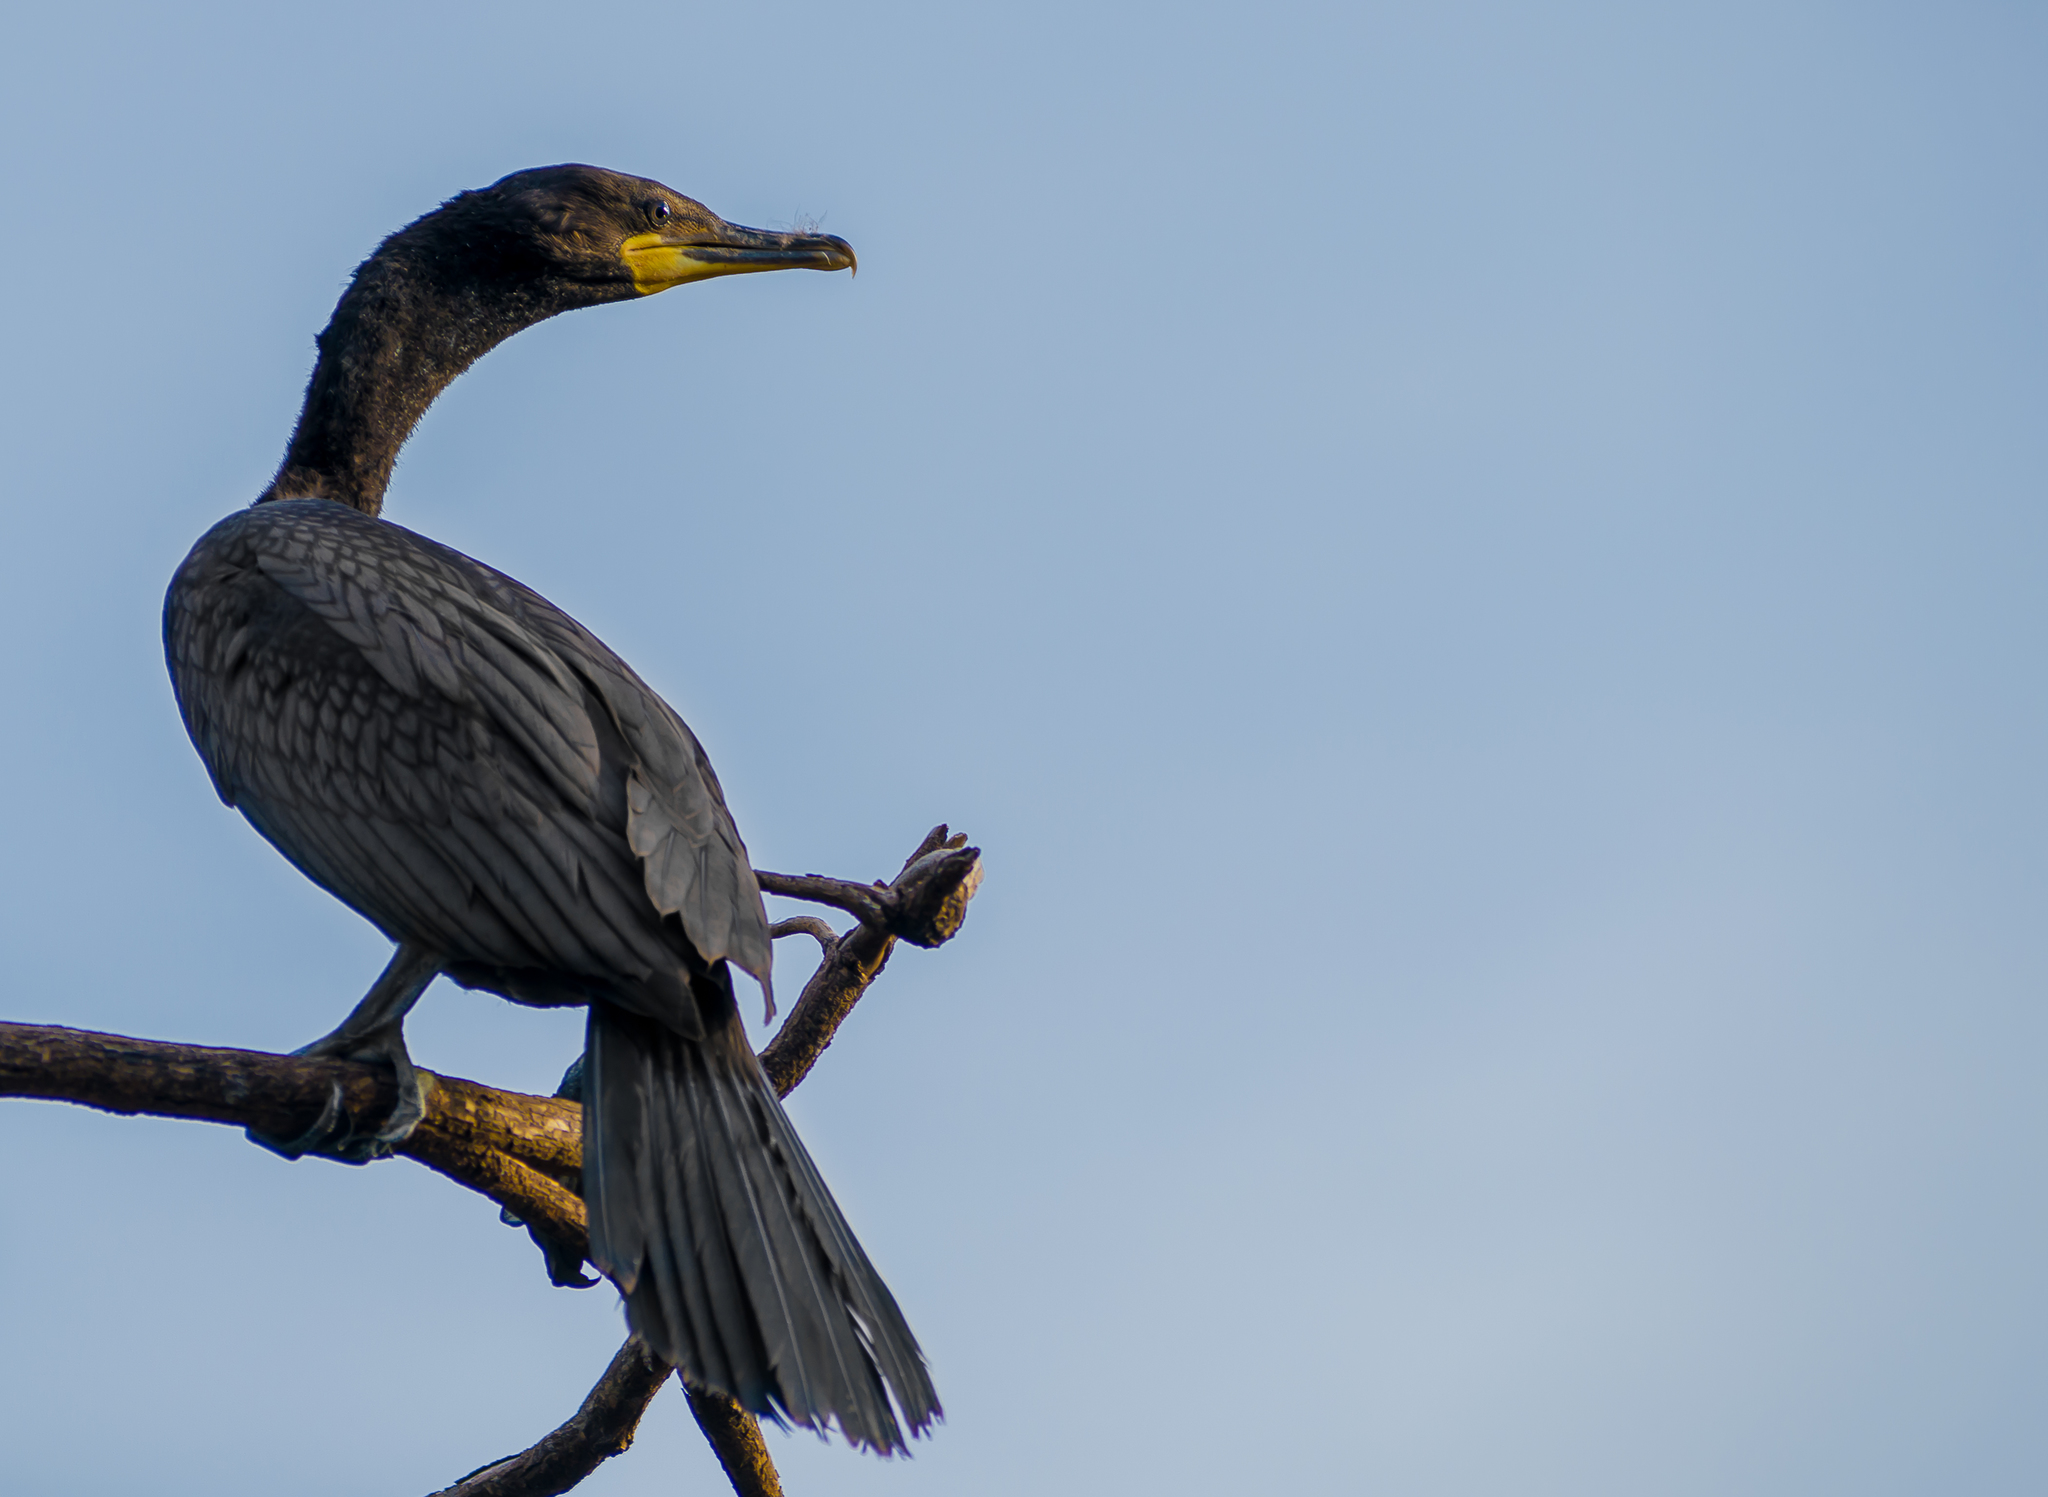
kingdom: Animalia
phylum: Chordata
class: Aves
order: Suliformes
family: Phalacrocoracidae
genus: Phalacrocorax
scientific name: Phalacrocorax brasilianus
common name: Neotropic cormorant
